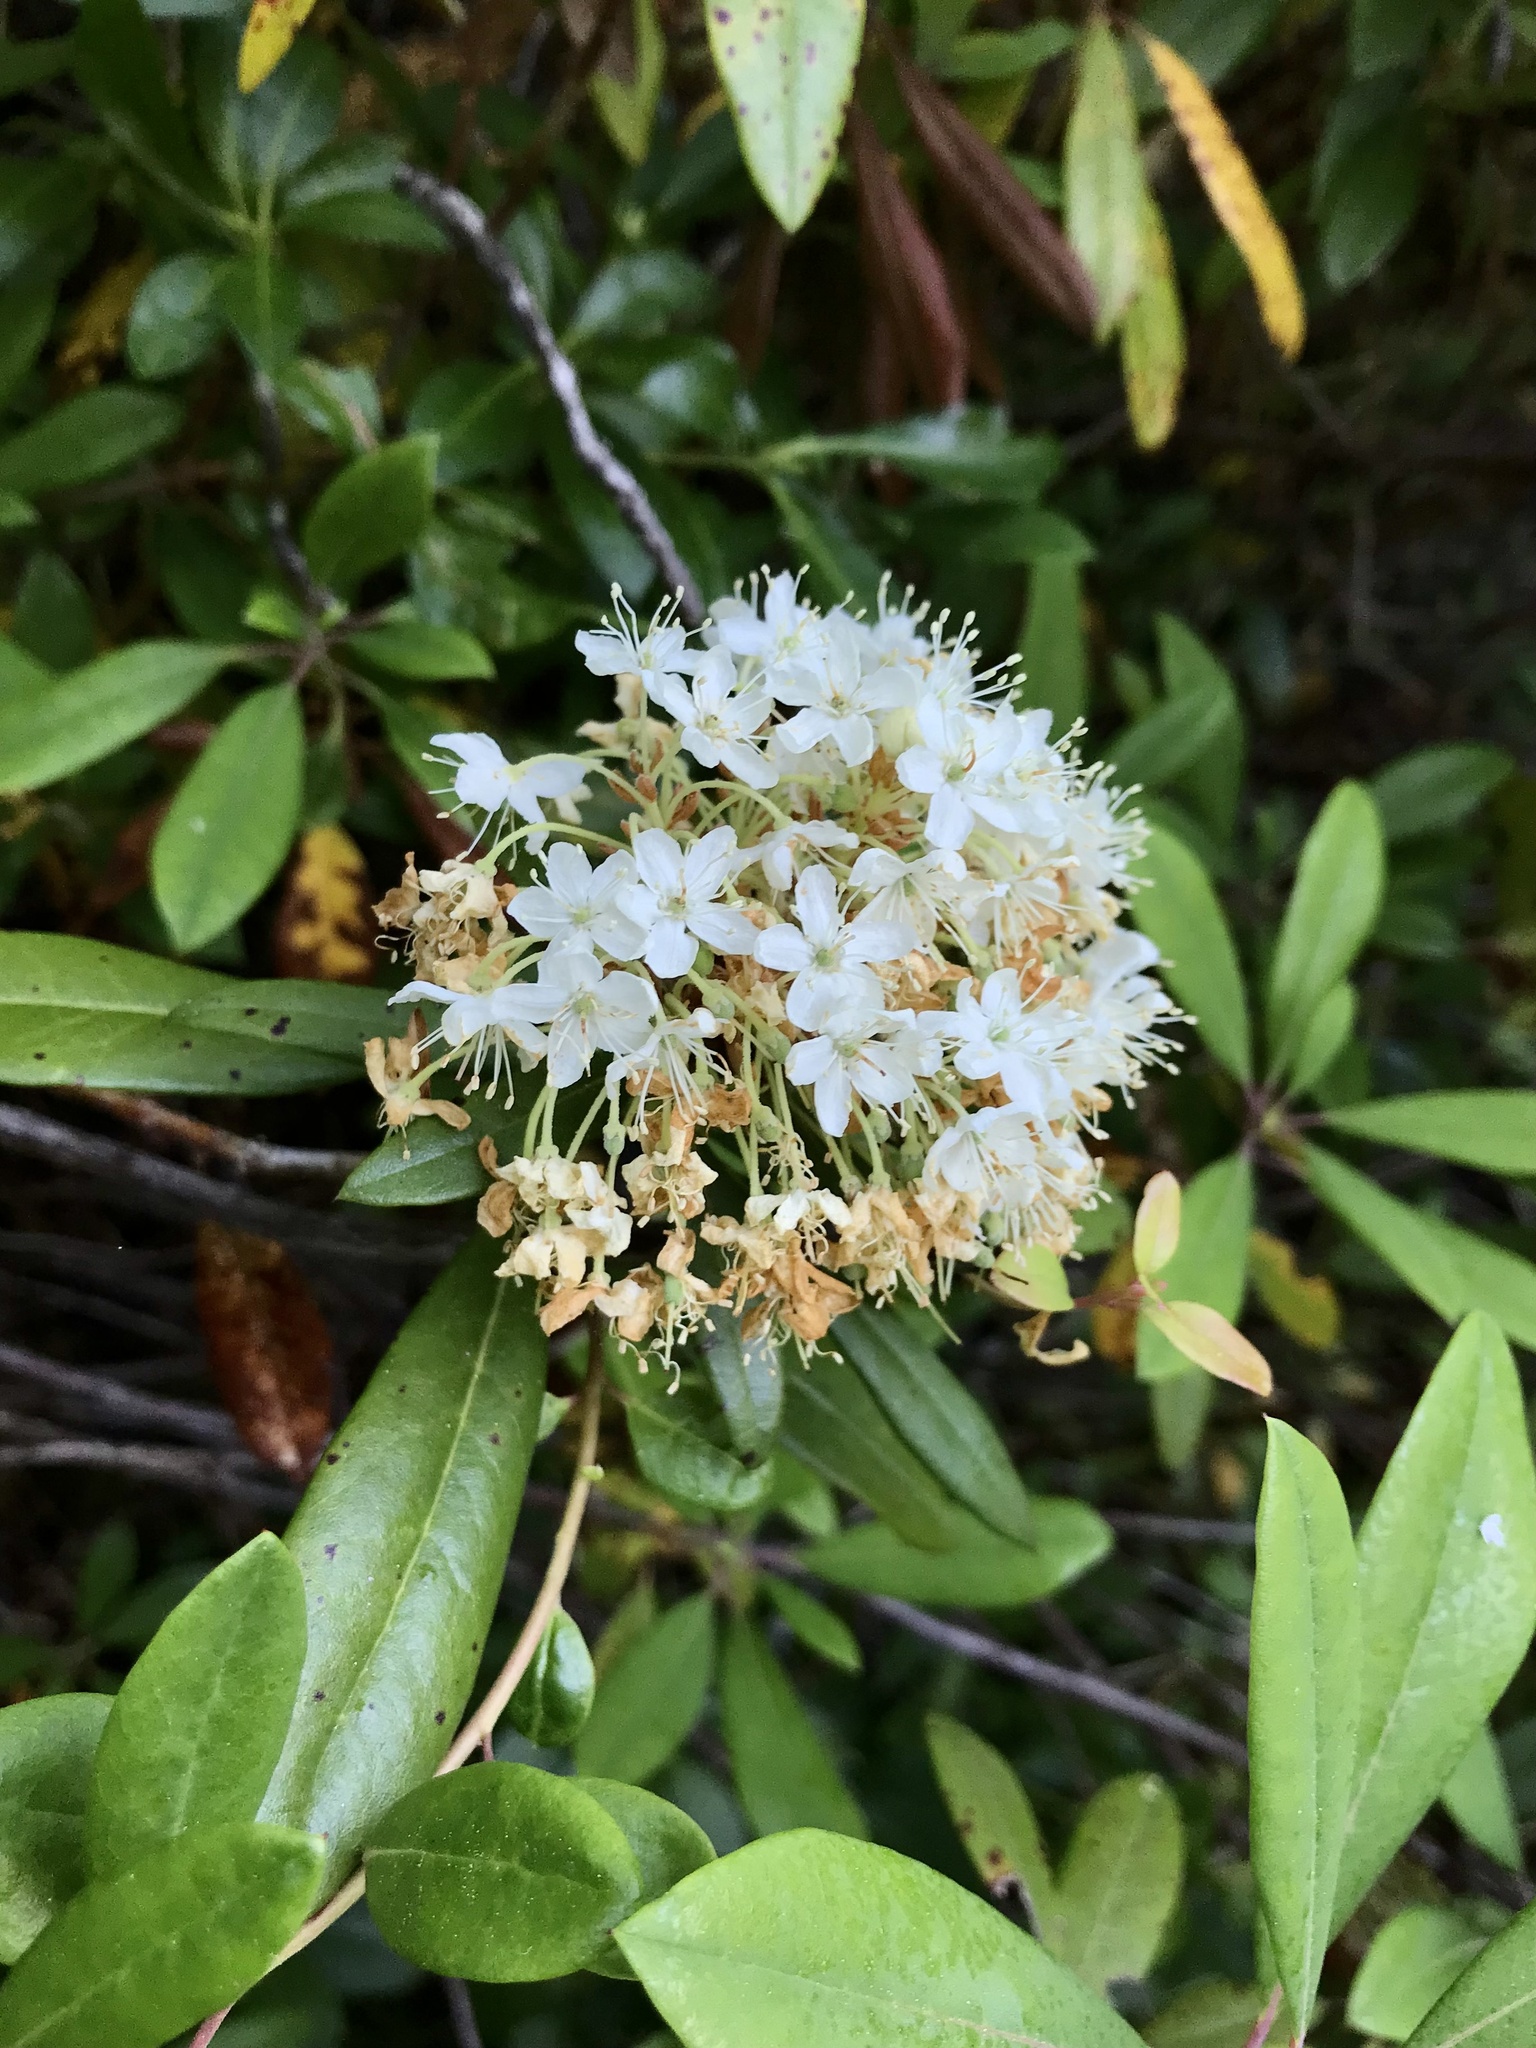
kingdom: Plantae
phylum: Tracheophyta
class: Magnoliopsida
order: Ericales
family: Ericaceae
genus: Rhododendron
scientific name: Rhododendron columbianum
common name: Western labrador tea
